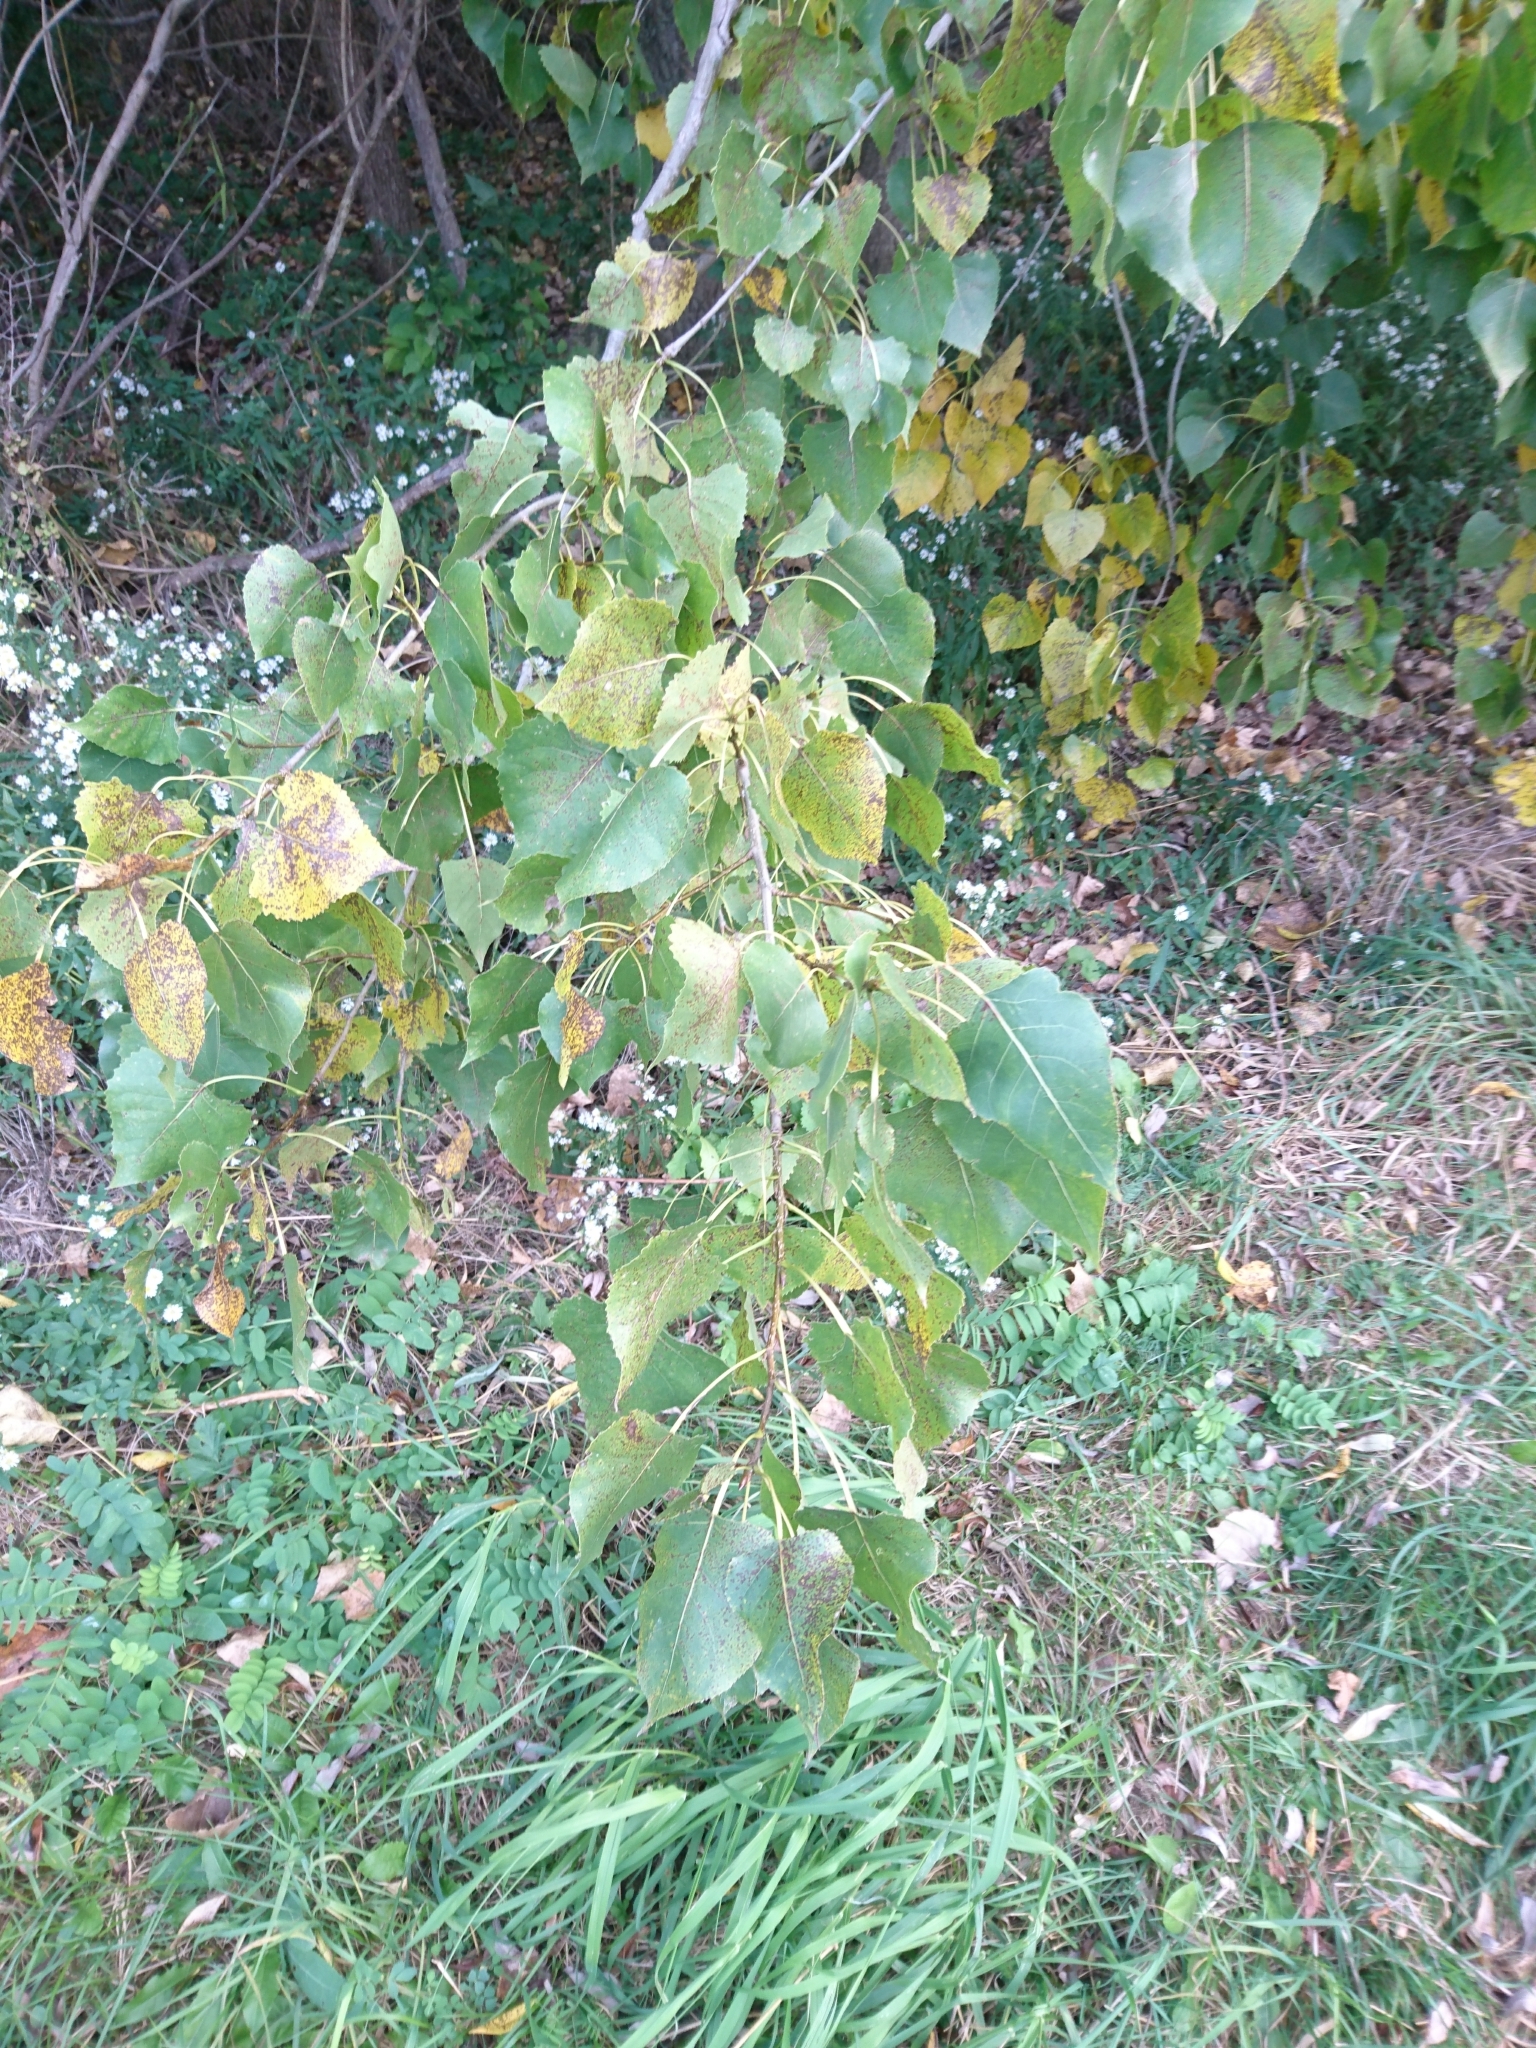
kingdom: Plantae
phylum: Tracheophyta
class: Magnoliopsida
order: Malpighiales
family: Salicaceae
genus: Populus
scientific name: Populus deltoides
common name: Eastern cottonwood
